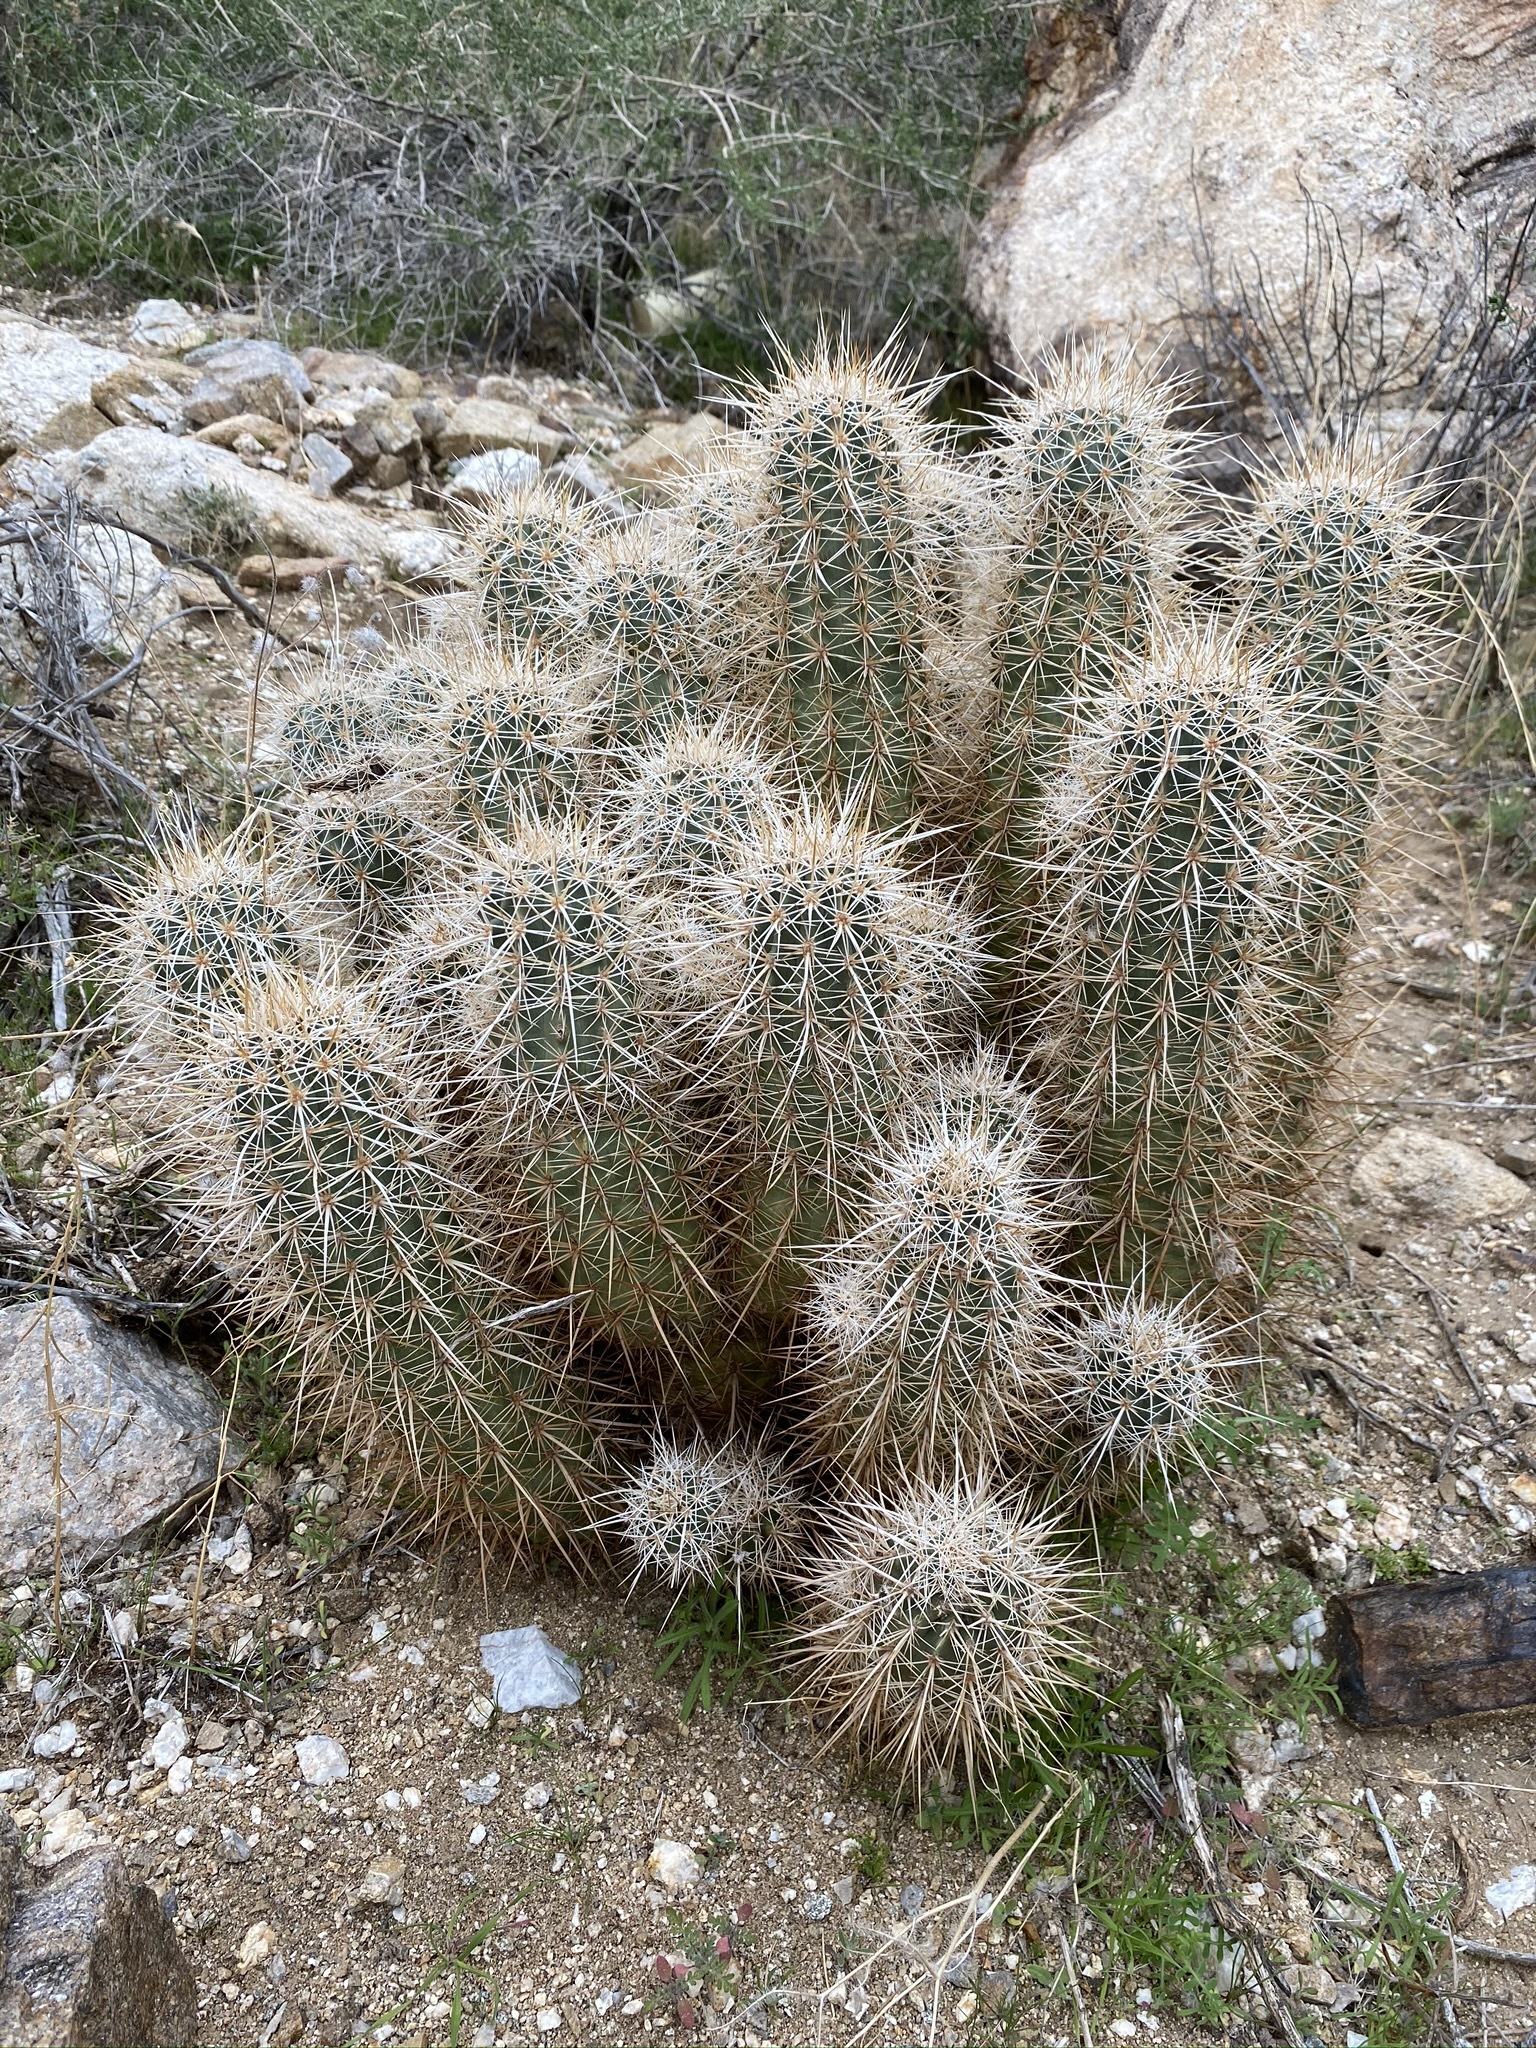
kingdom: Plantae
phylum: Tracheophyta
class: Magnoliopsida
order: Caryophyllales
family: Cactaceae
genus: Echinocereus
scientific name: Echinocereus engelmannii
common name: Engelmann's hedgehog cactus
